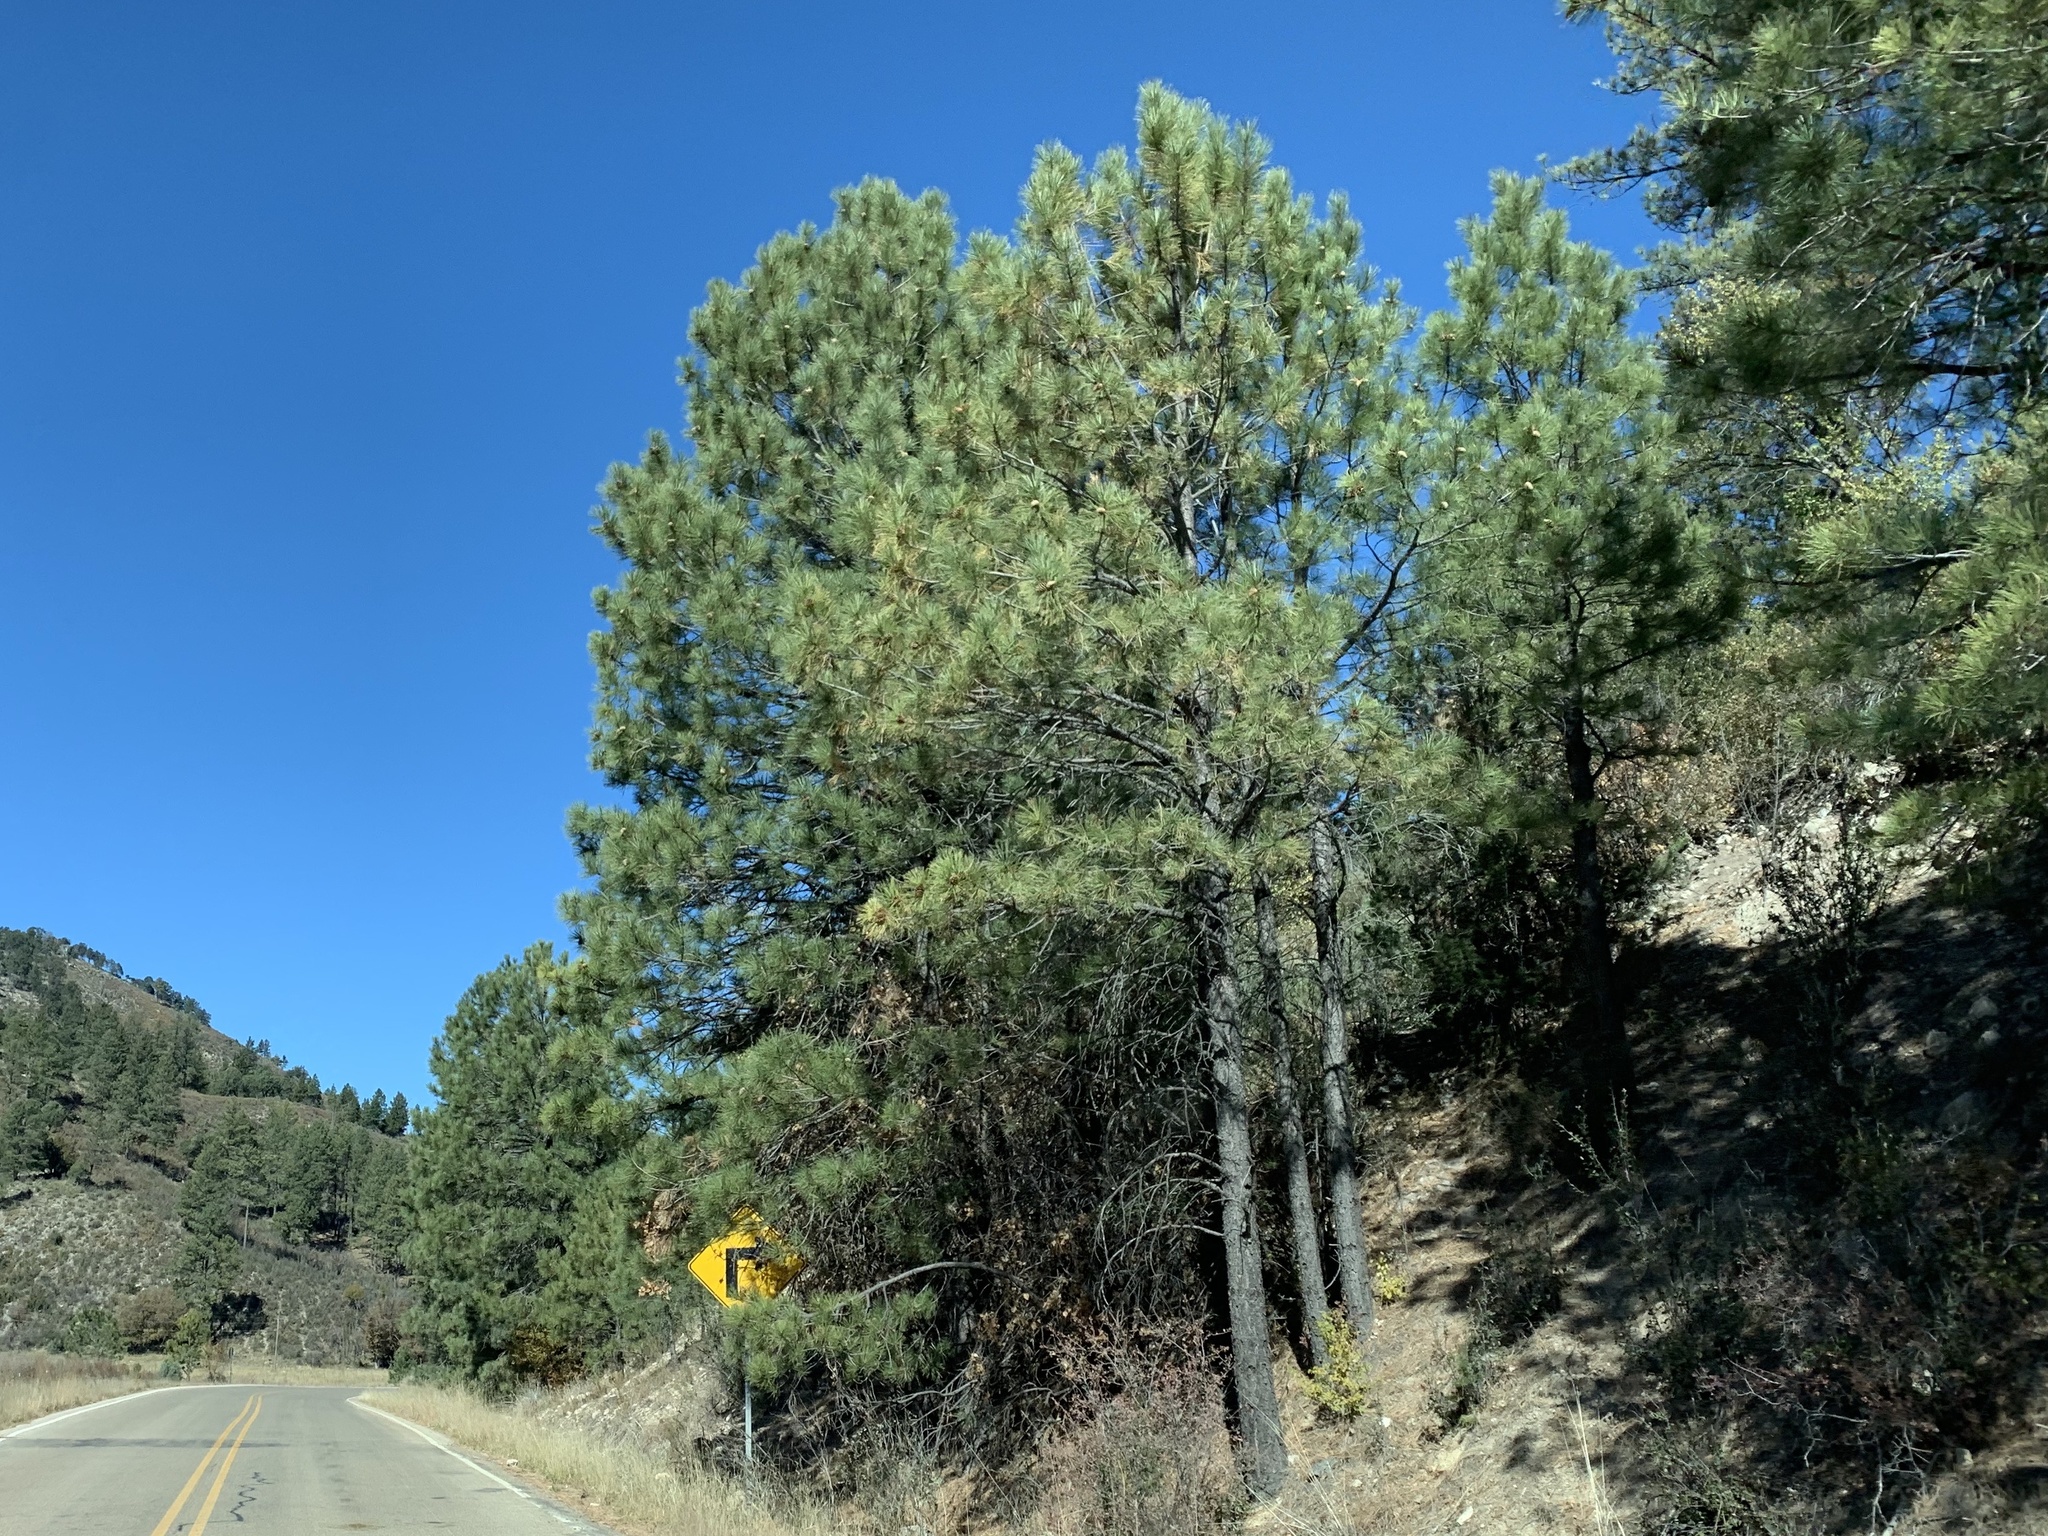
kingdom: Plantae
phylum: Tracheophyta
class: Pinopsida
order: Pinales
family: Pinaceae
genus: Pinus
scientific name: Pinus ponderosa
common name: Western yellow-pine
